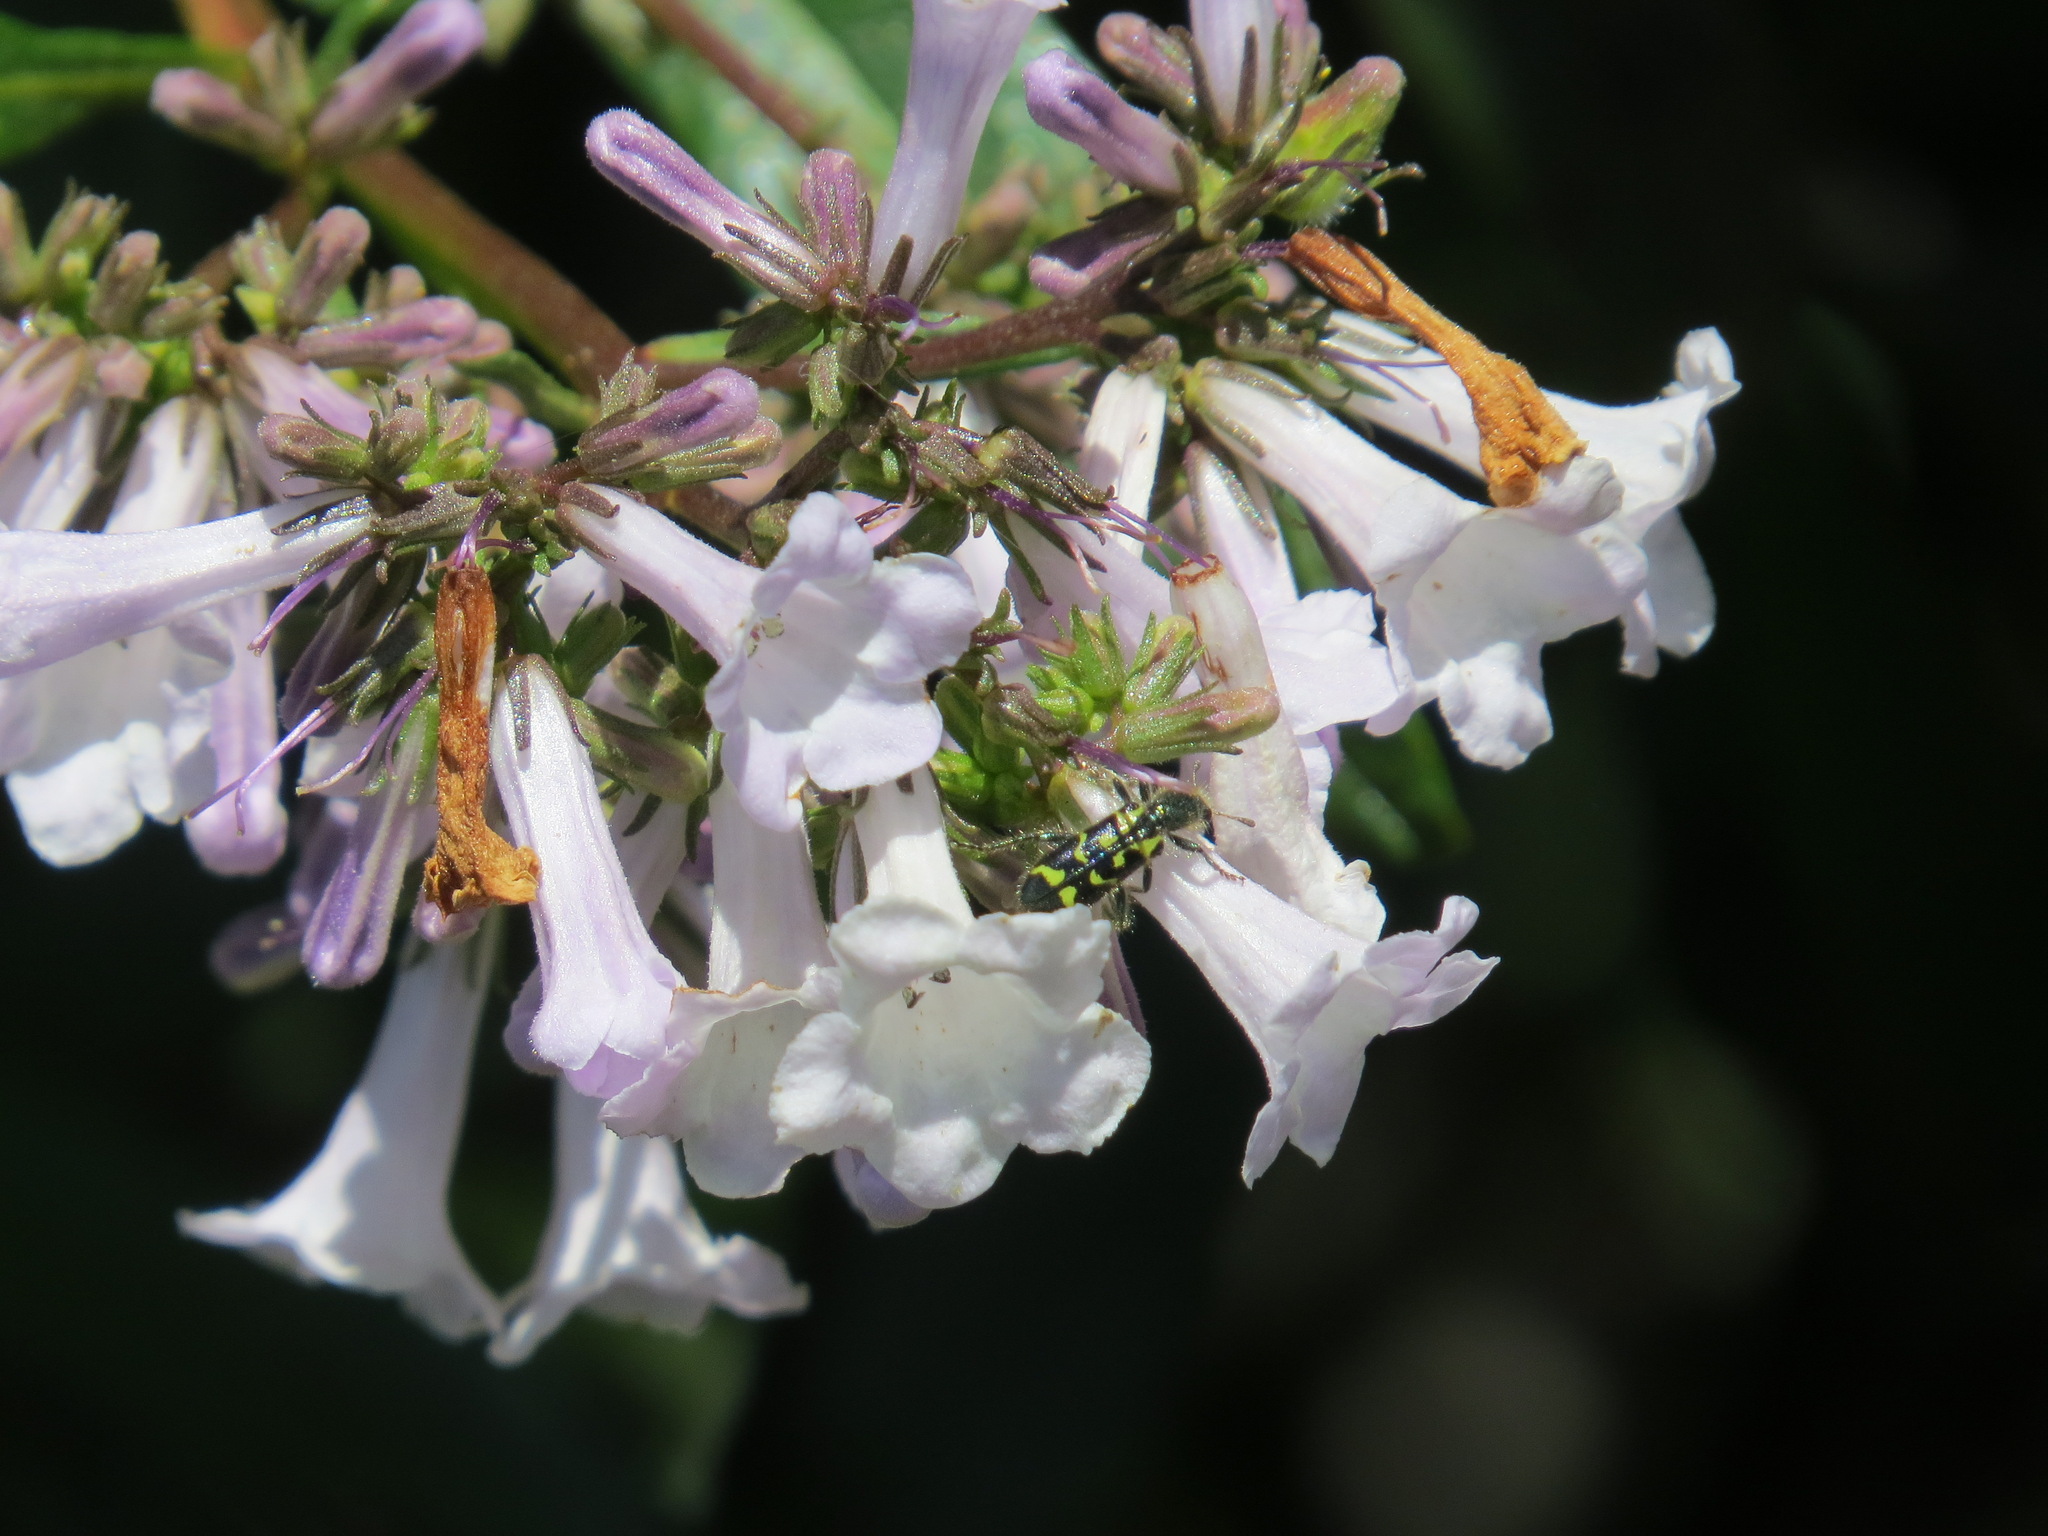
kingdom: Animalia
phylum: Arthropoda
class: Insecta
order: Coleoptera
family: Cleridae
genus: Trichodes
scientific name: Trichodes ornatus
